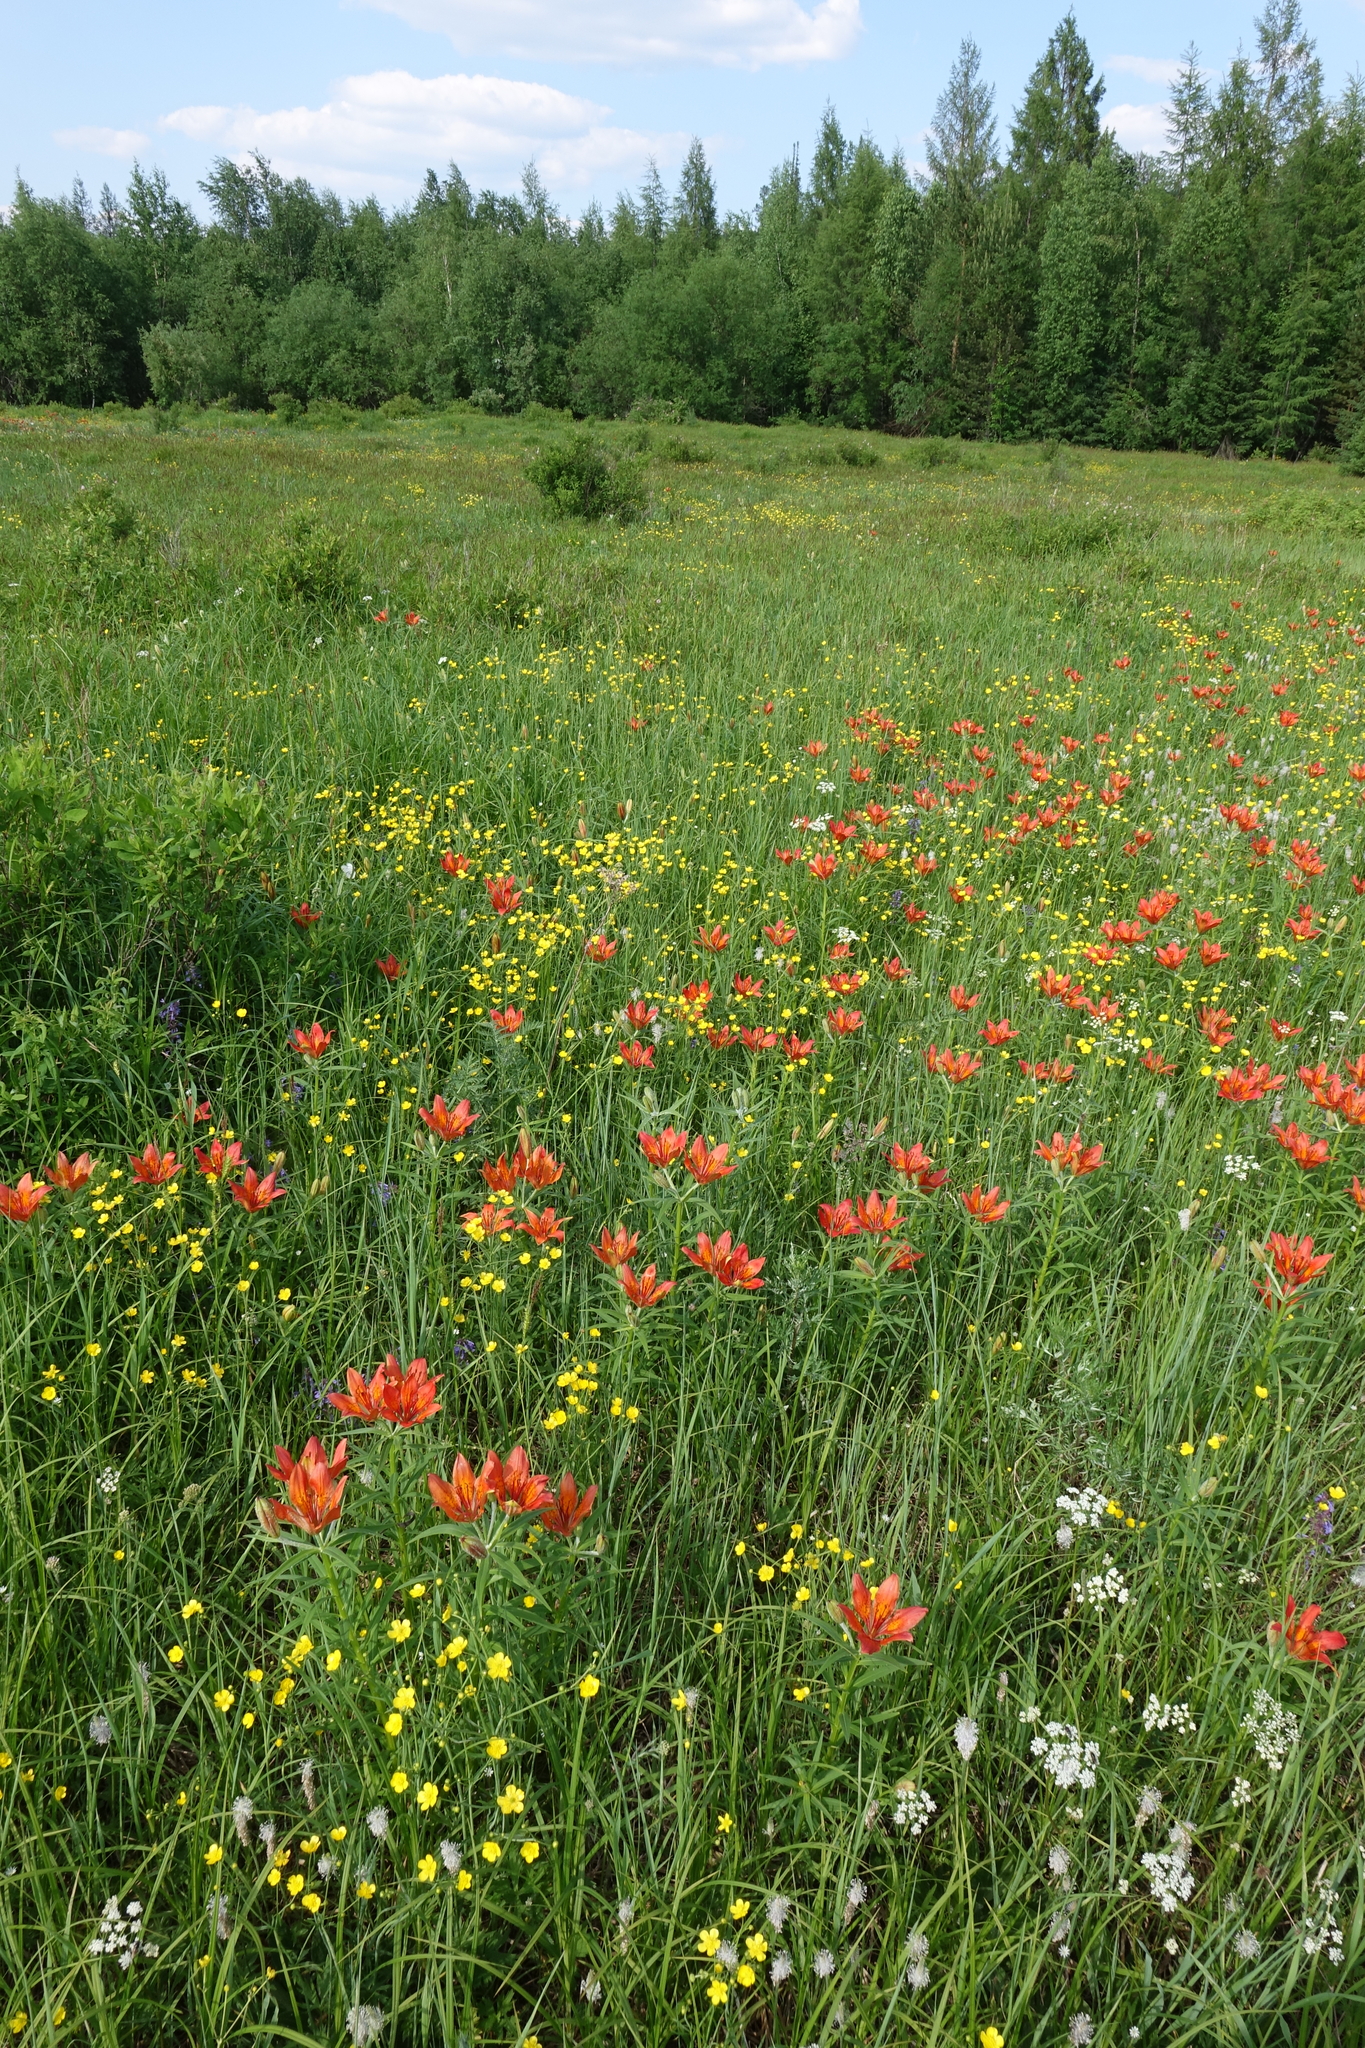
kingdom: Plantae
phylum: Tracheophyta
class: Liliopsida
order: Liliales
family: Liliaceae
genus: Lilium
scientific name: Lilium pensylvanicum
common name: Candlestick lily
